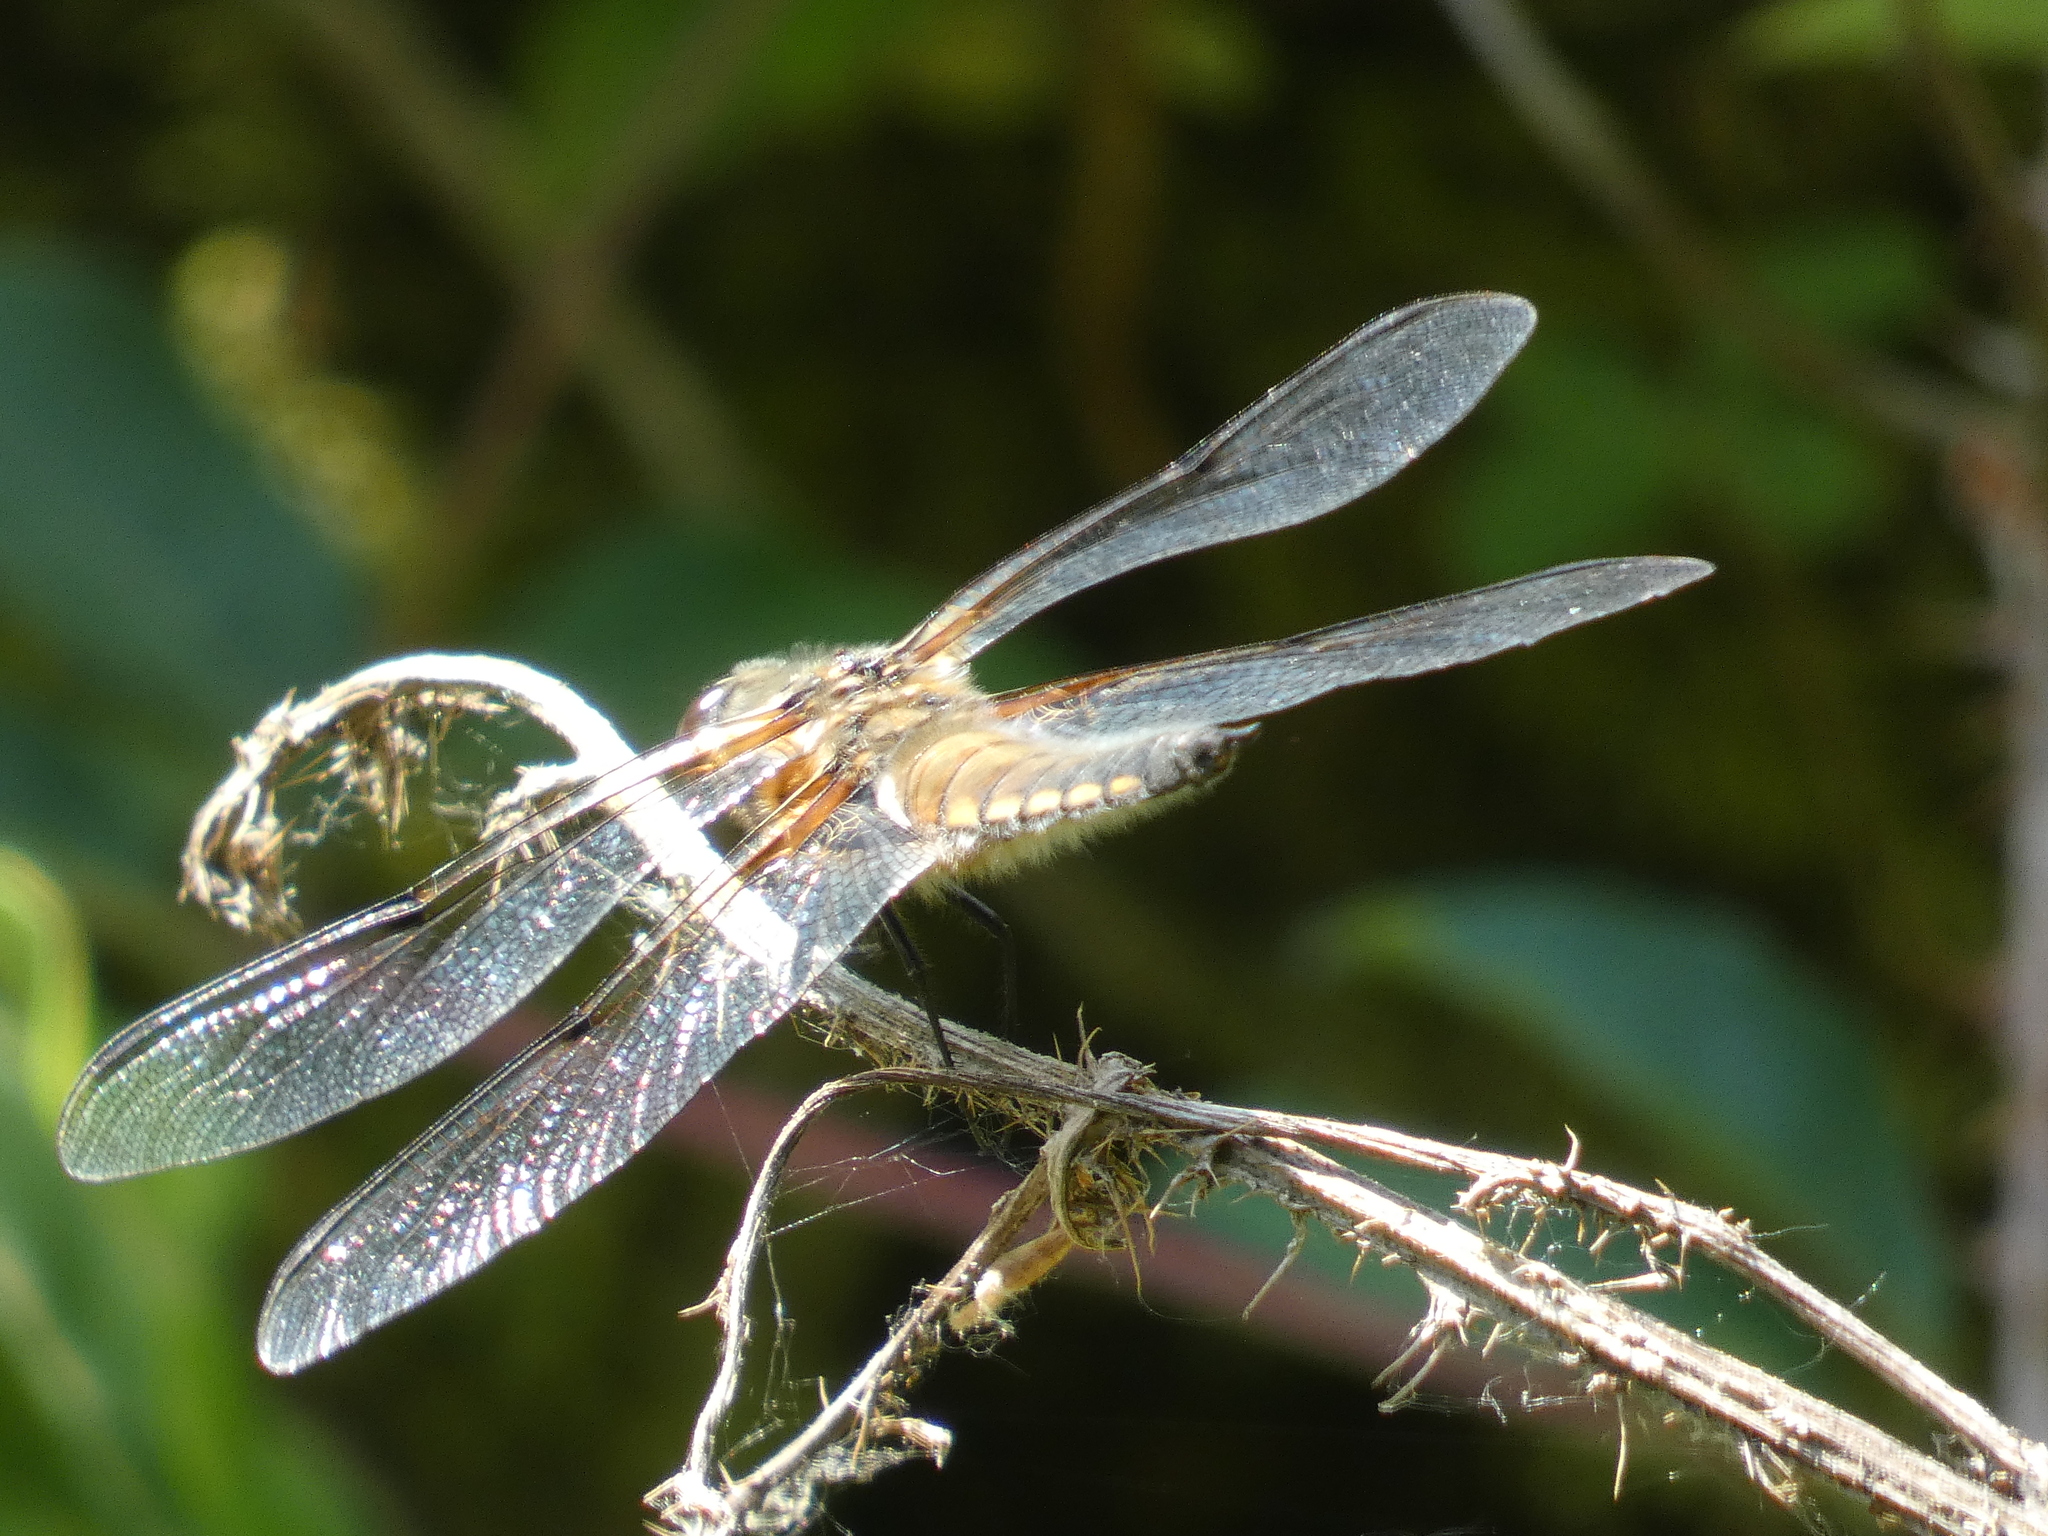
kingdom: Animalia
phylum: Arthropoda
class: Insecta
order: Odonata
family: Libellulidae
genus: Libellula
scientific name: Libellula quadrimaculata
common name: Four-spotted chaser
